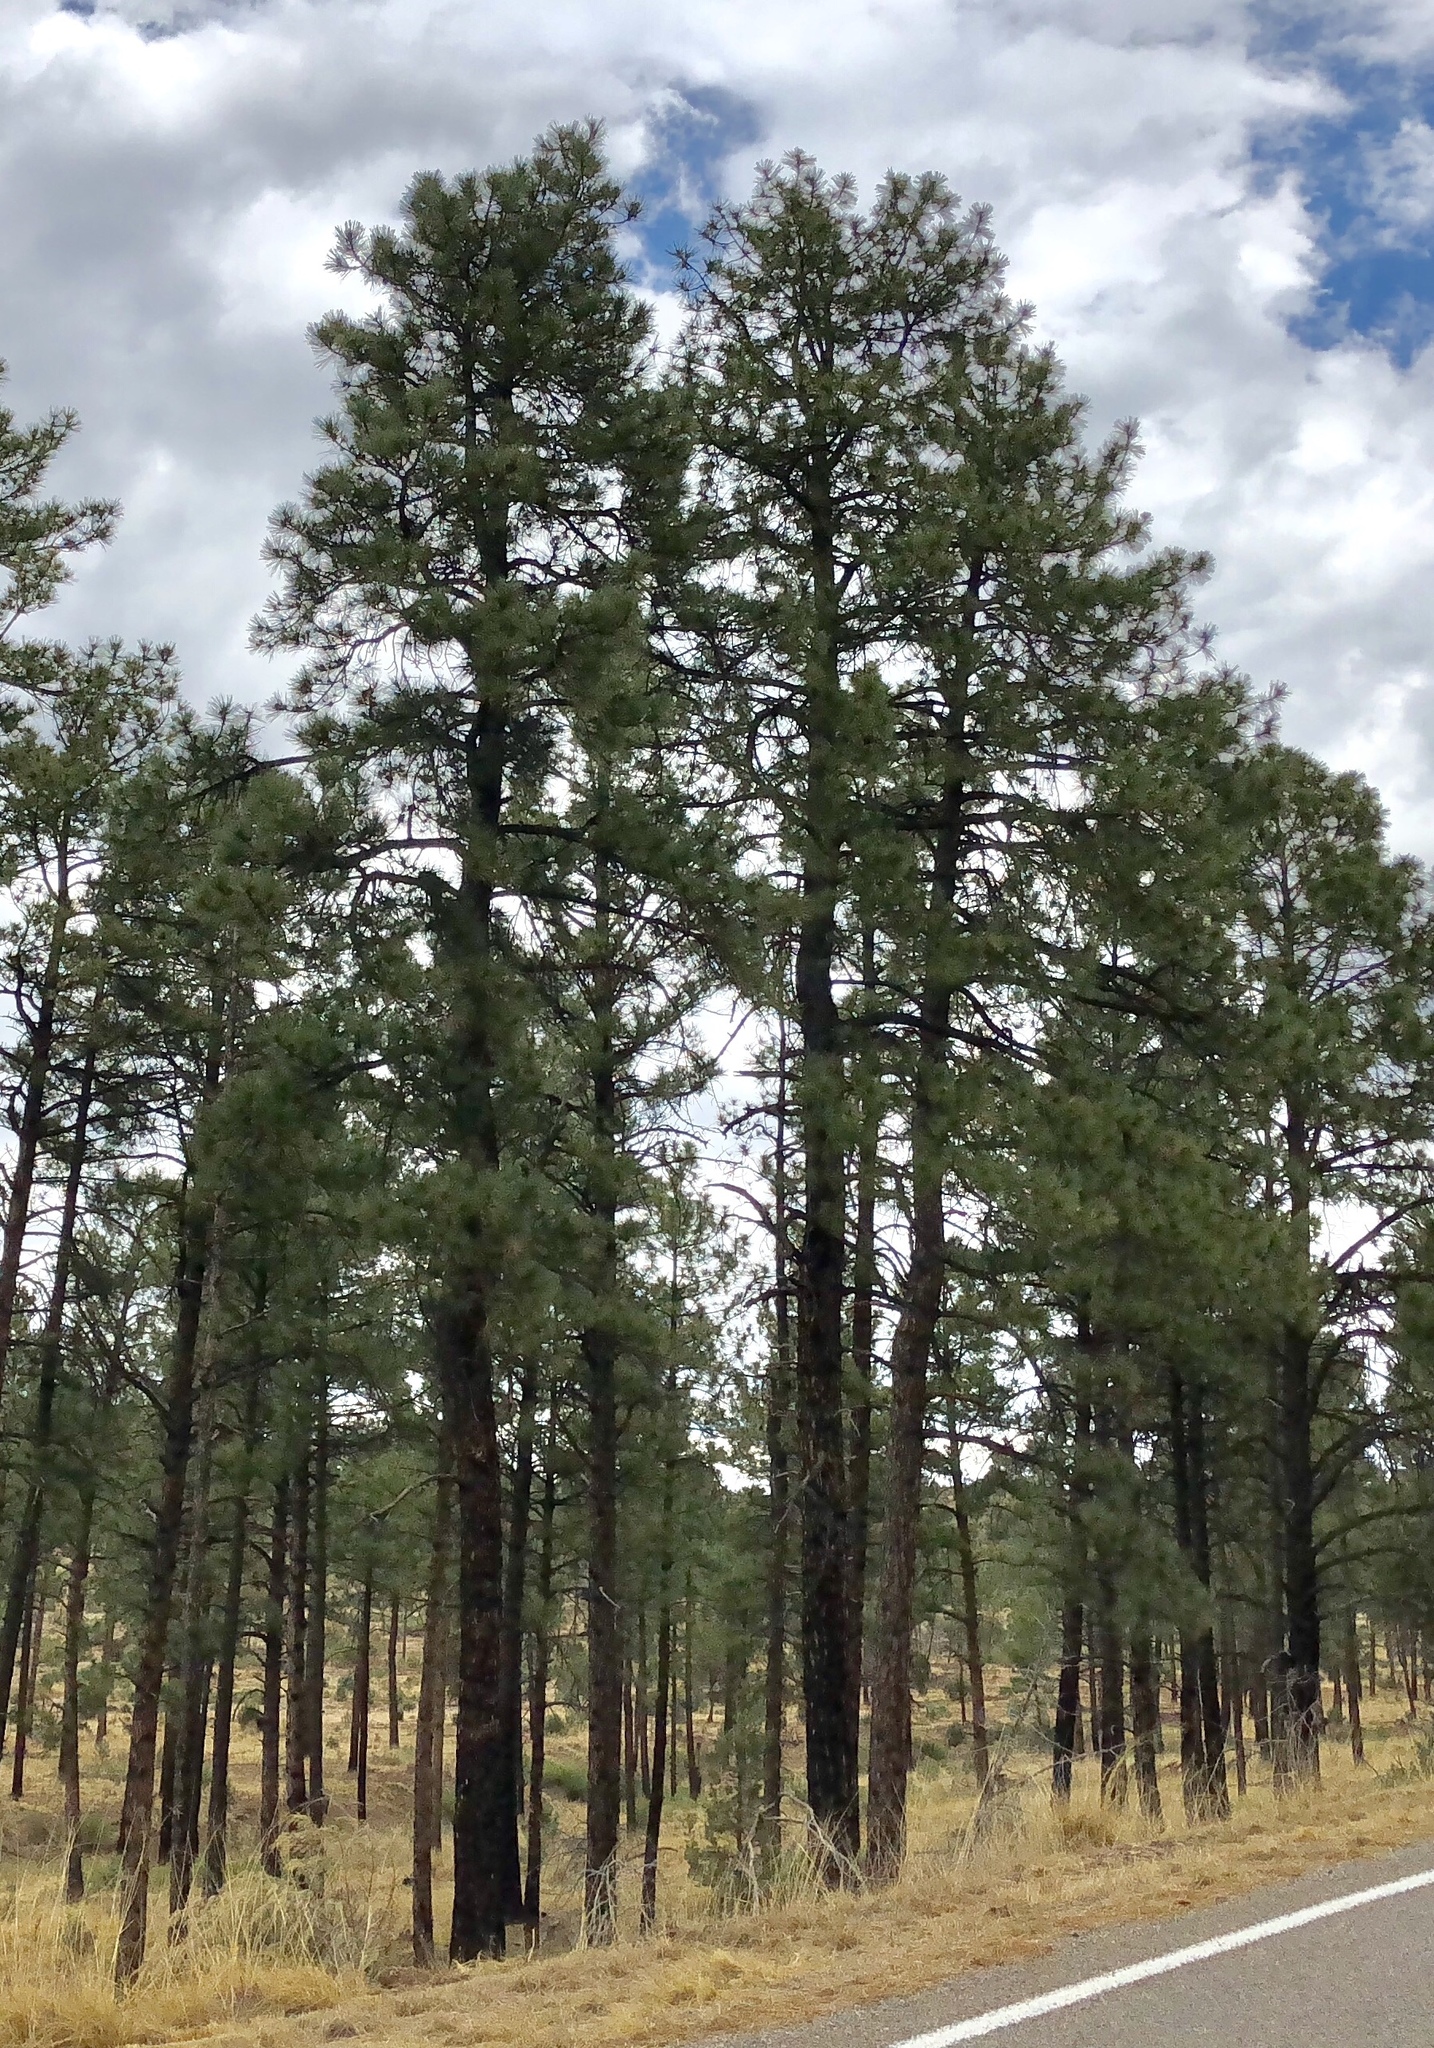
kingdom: Plantae
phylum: Tracheophyta
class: Pinopsida
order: Pinales
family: Pinaceae
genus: Pinus
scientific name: Pinus ponderosa
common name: Western yellow-pine
